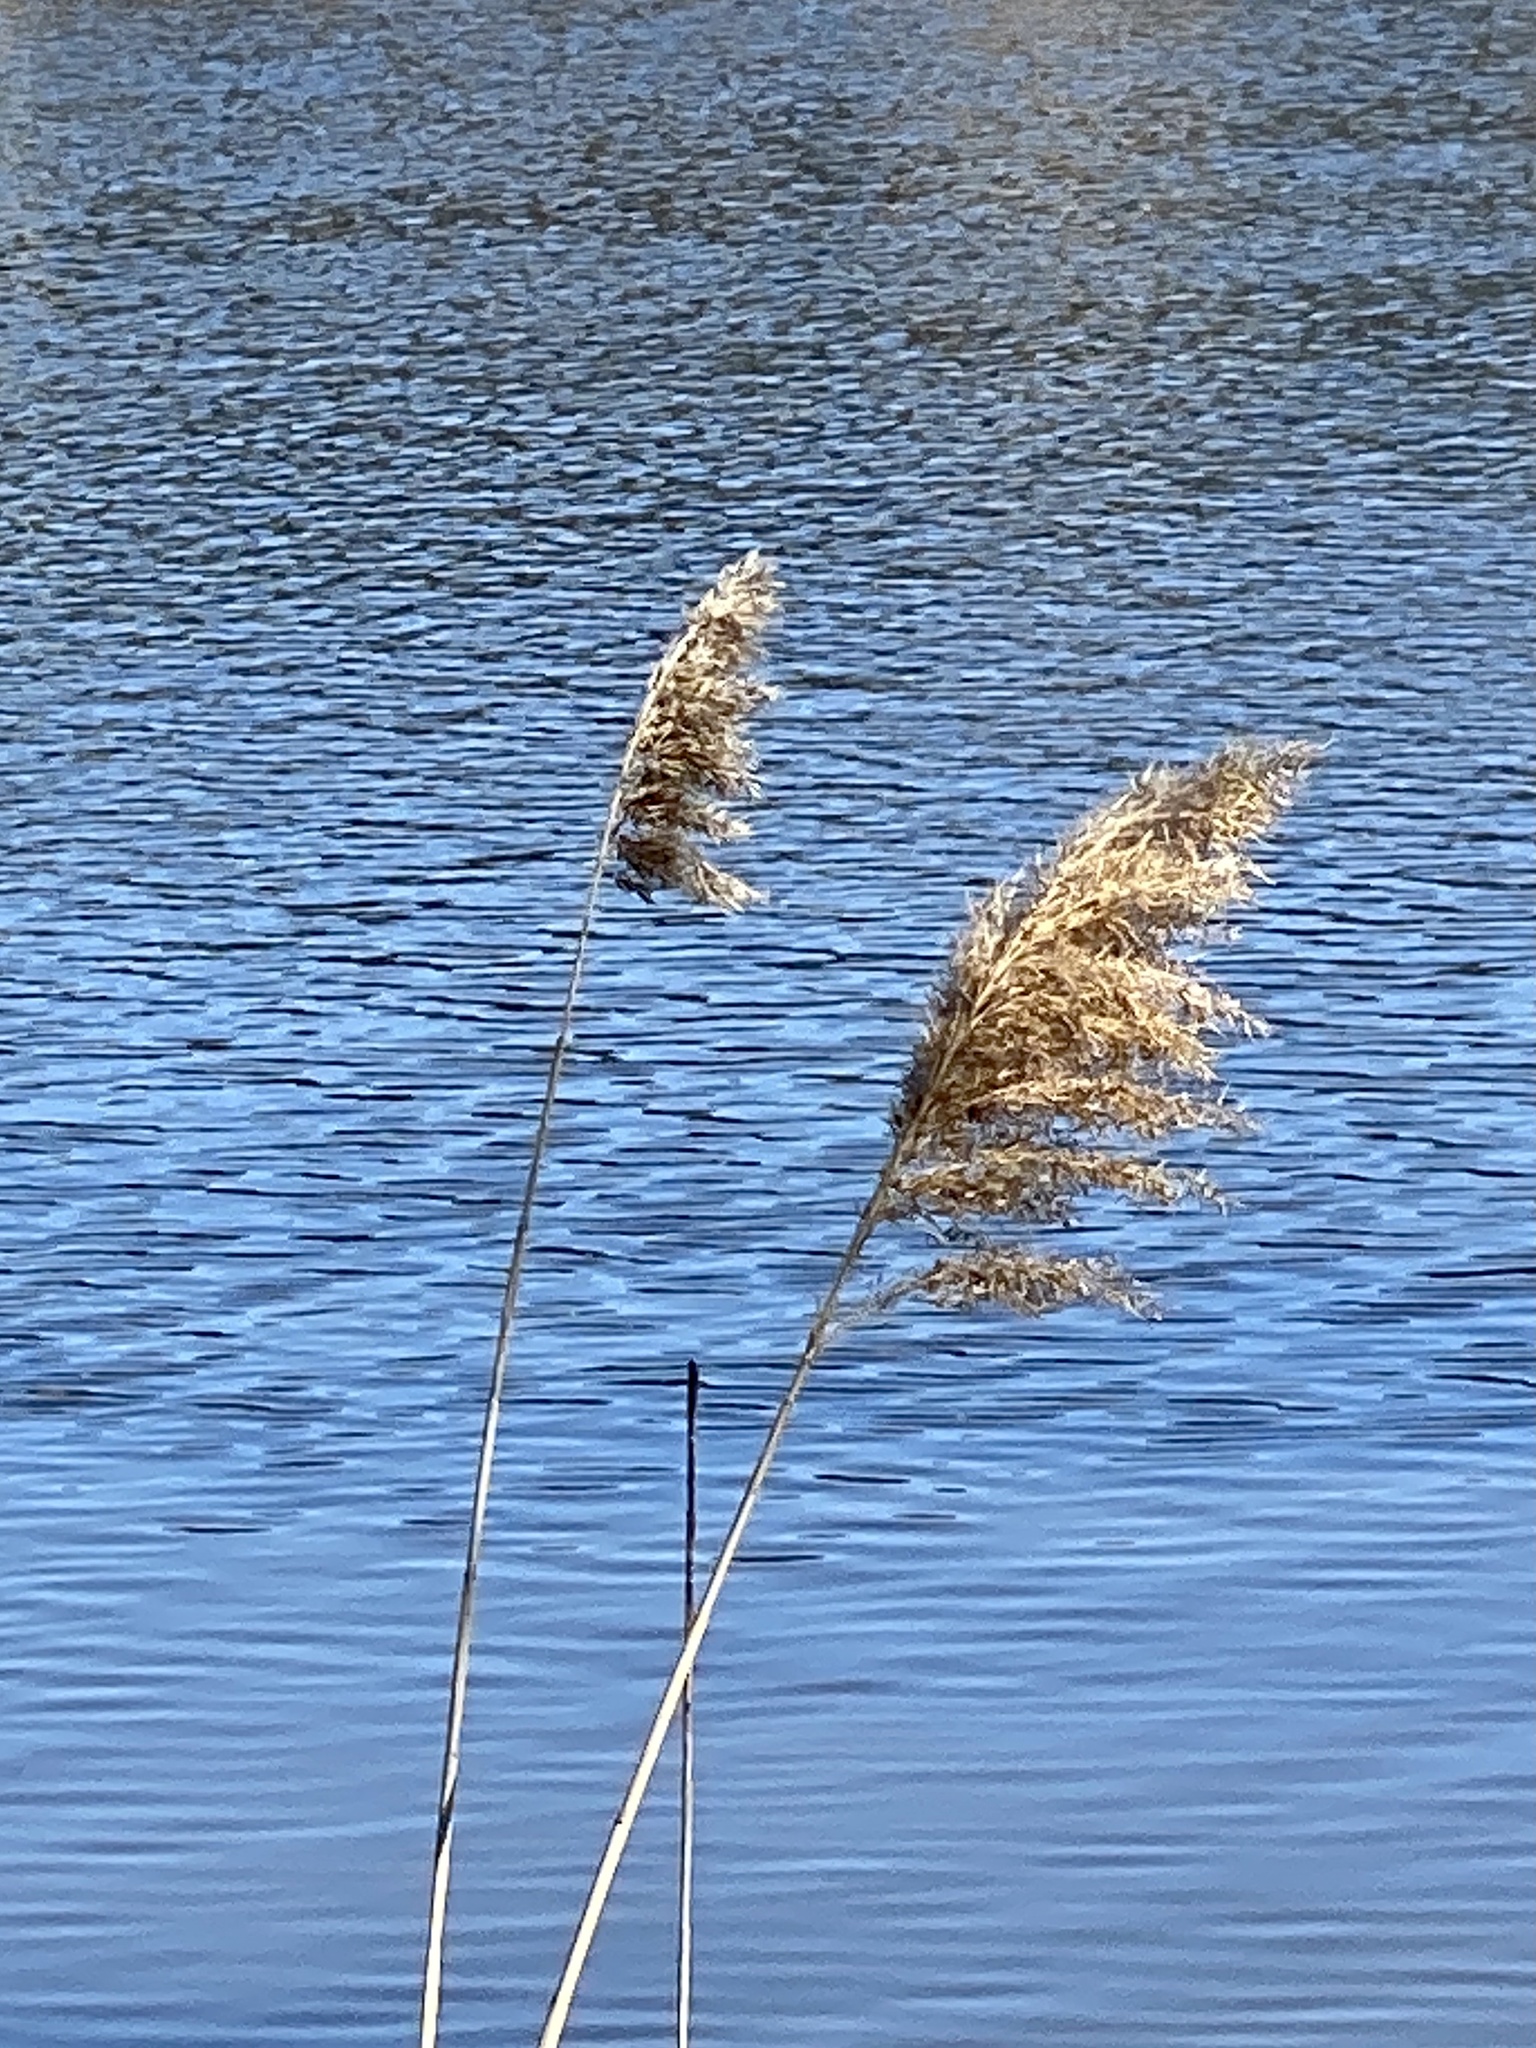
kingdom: Plantae
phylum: Tracheophyta
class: Liliopsida
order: Poales
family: Poaceae
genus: Phragmites
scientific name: Phragmites australis
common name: Common reed
